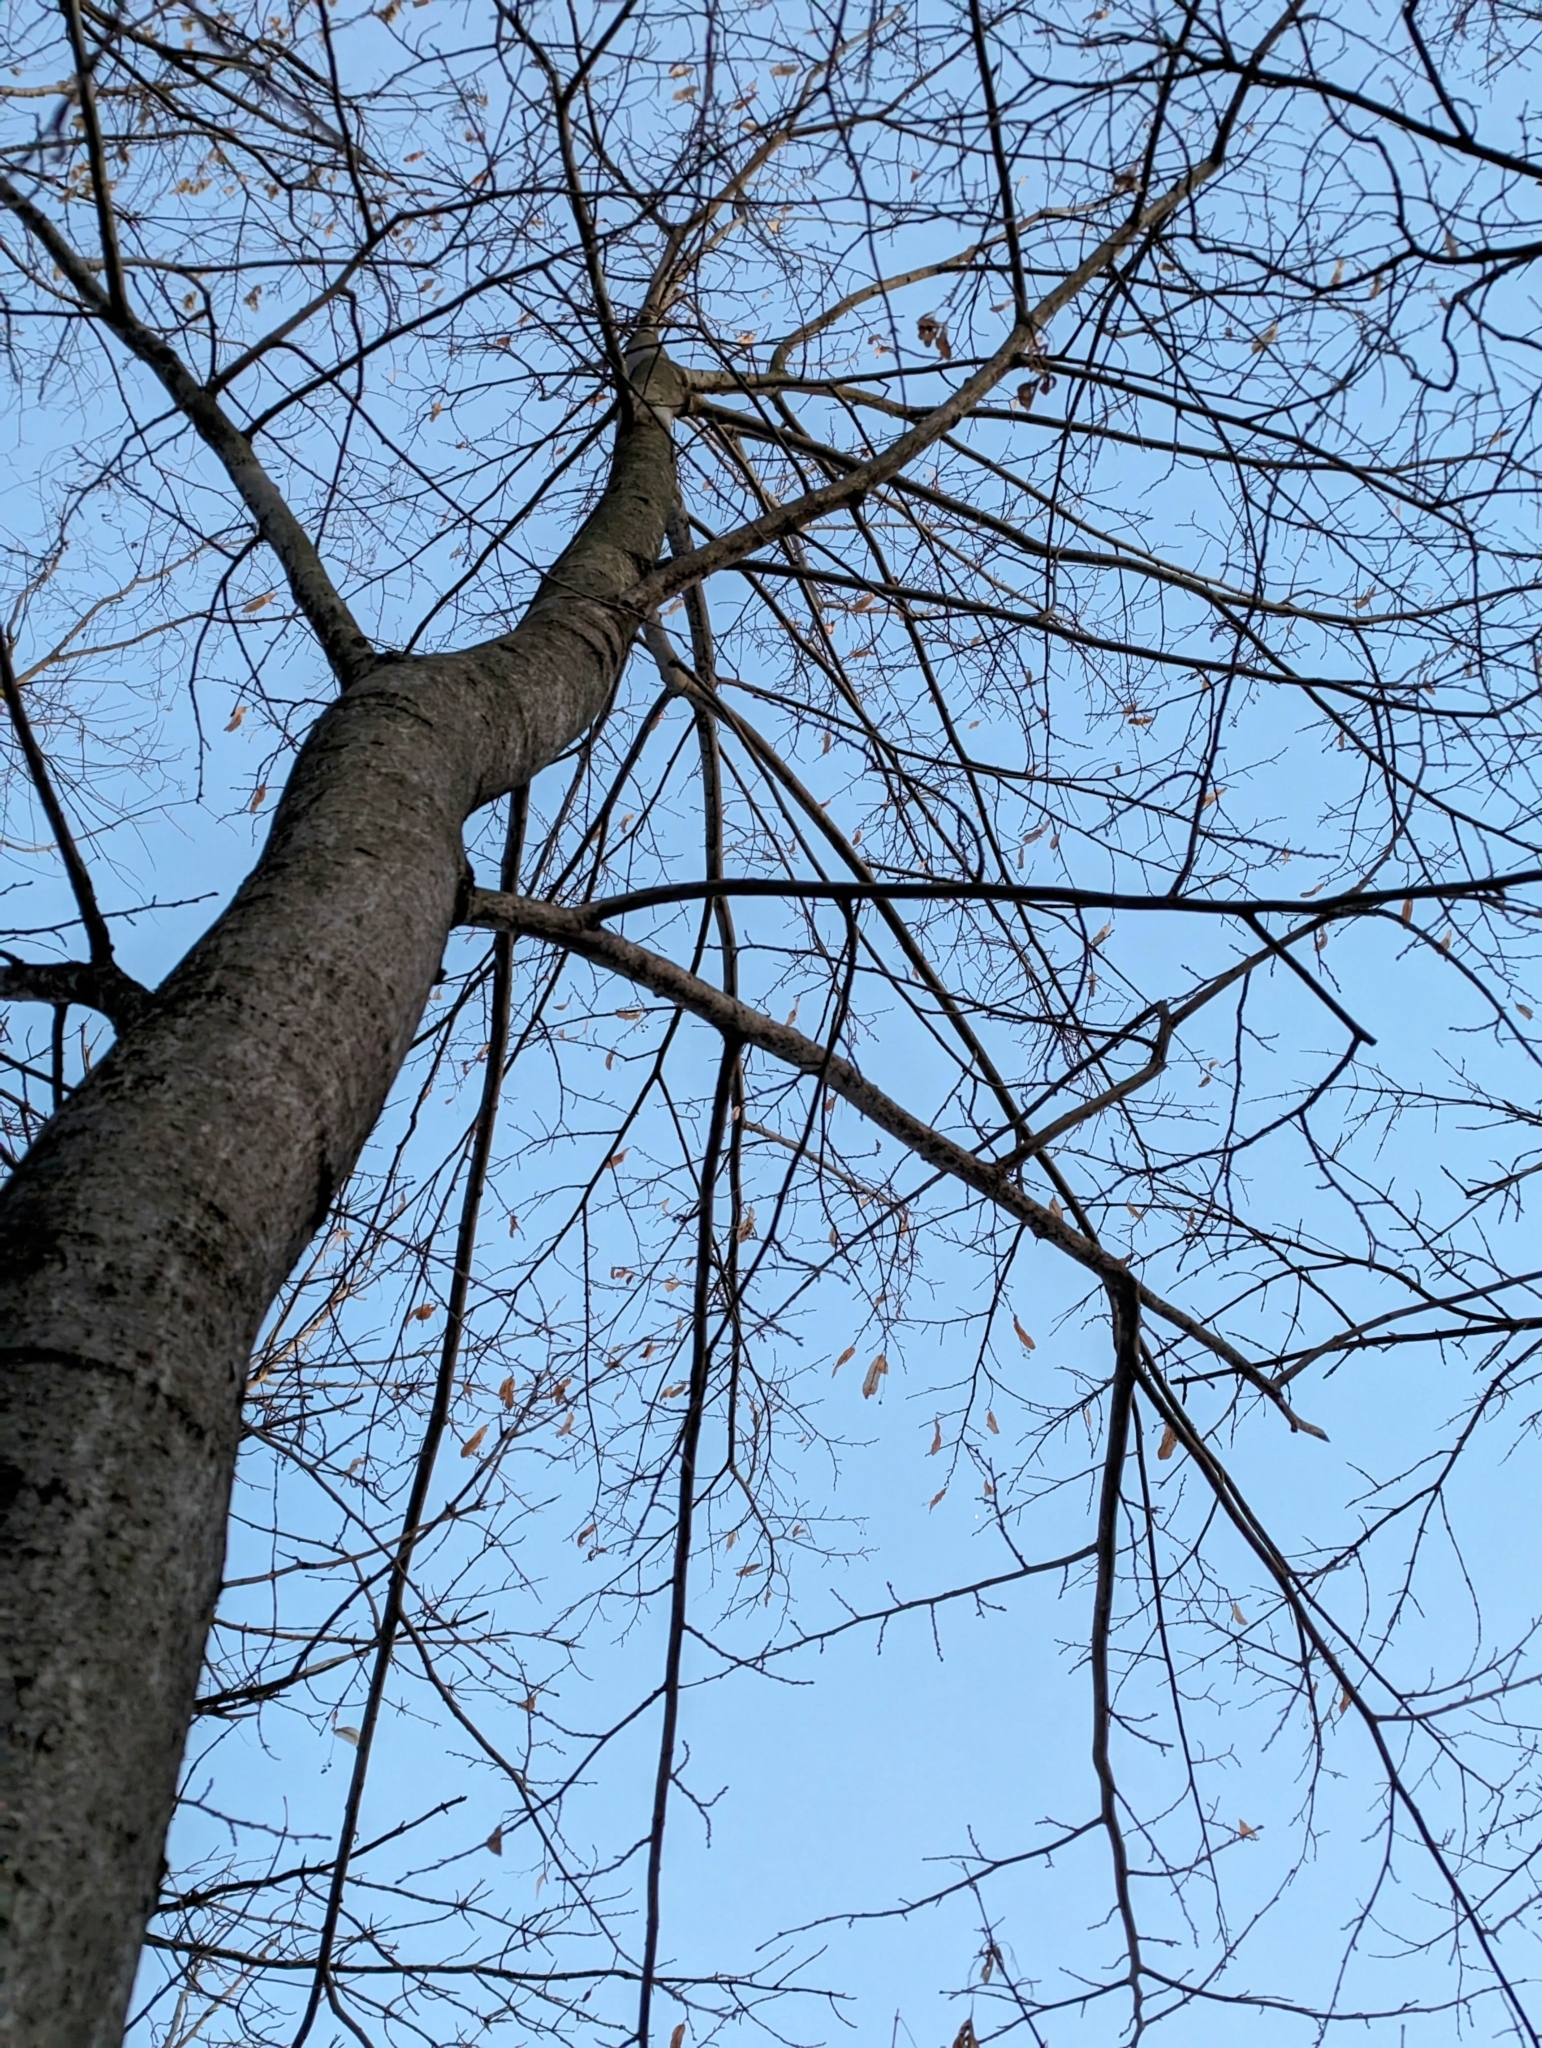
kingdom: Plantae
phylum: Tracheophyta
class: Magnoliopsida
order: Malvales
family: Malvaceae
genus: Tilia
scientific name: Tilia americana
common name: Basswood
